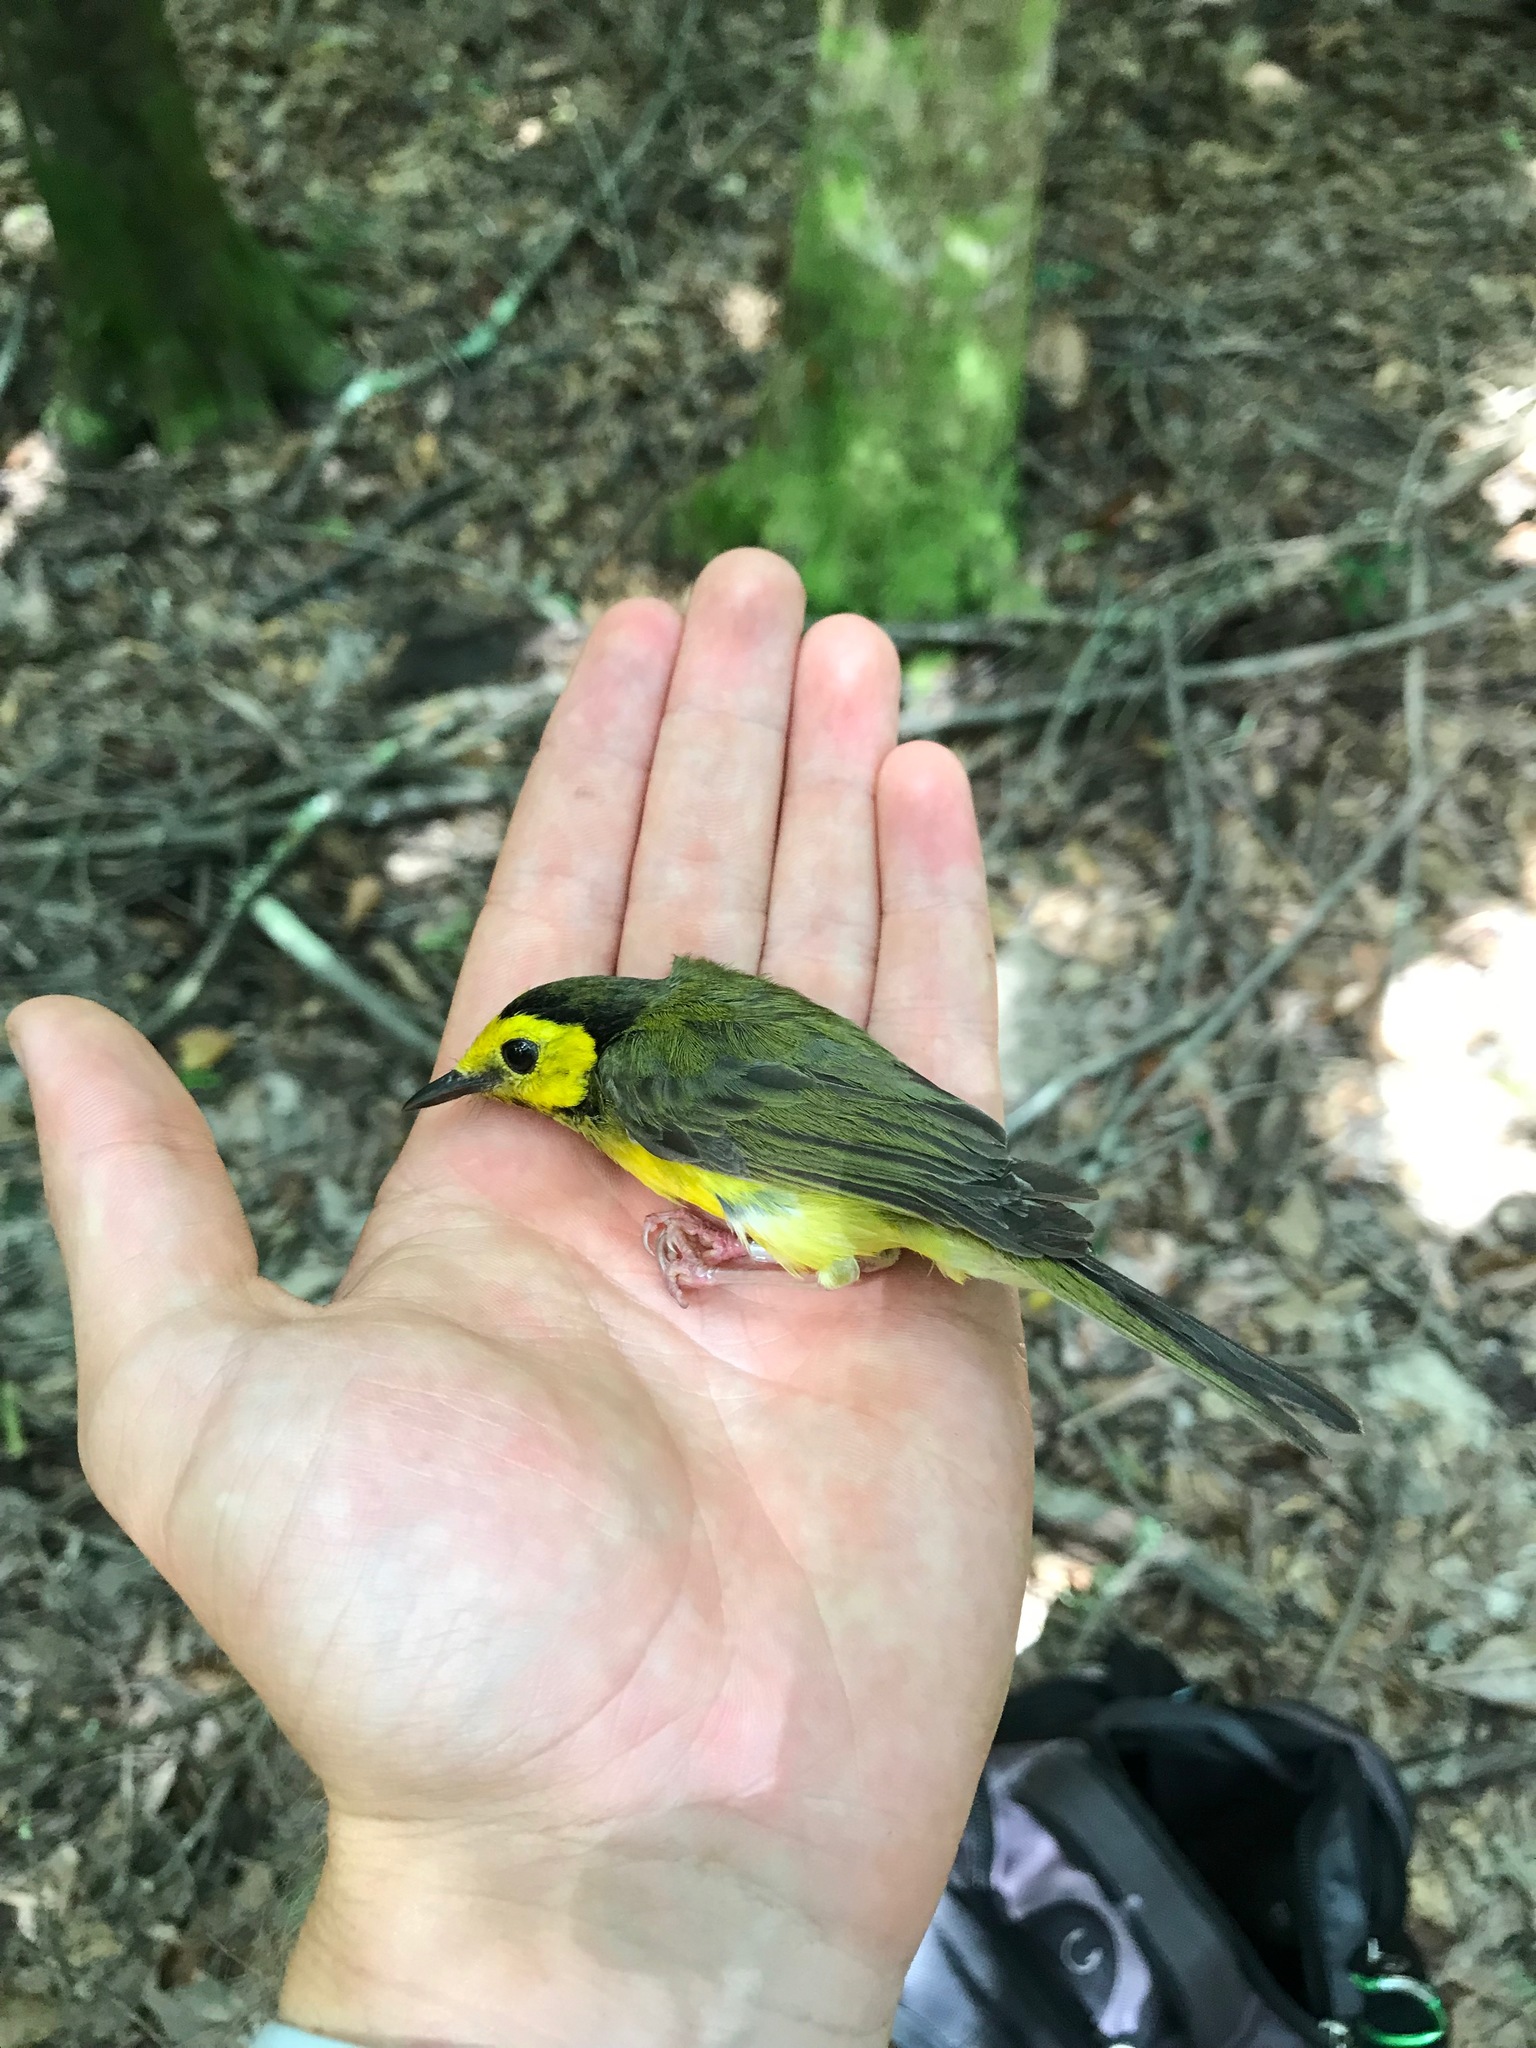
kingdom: Animalia
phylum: Chordata
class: Aves
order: Passeriformes
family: Parulidae
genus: Setophaga
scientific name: Setophaga citrina
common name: Hooded warbler
